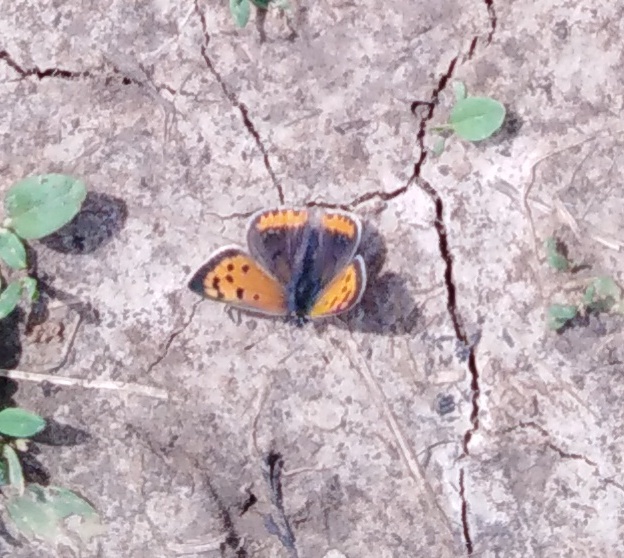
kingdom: Animalia
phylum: Arthropoda
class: Insecta
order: Lepidoptera
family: Lycaenidae
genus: Lycaena
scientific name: Lycaena phlaeas
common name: Small copper
